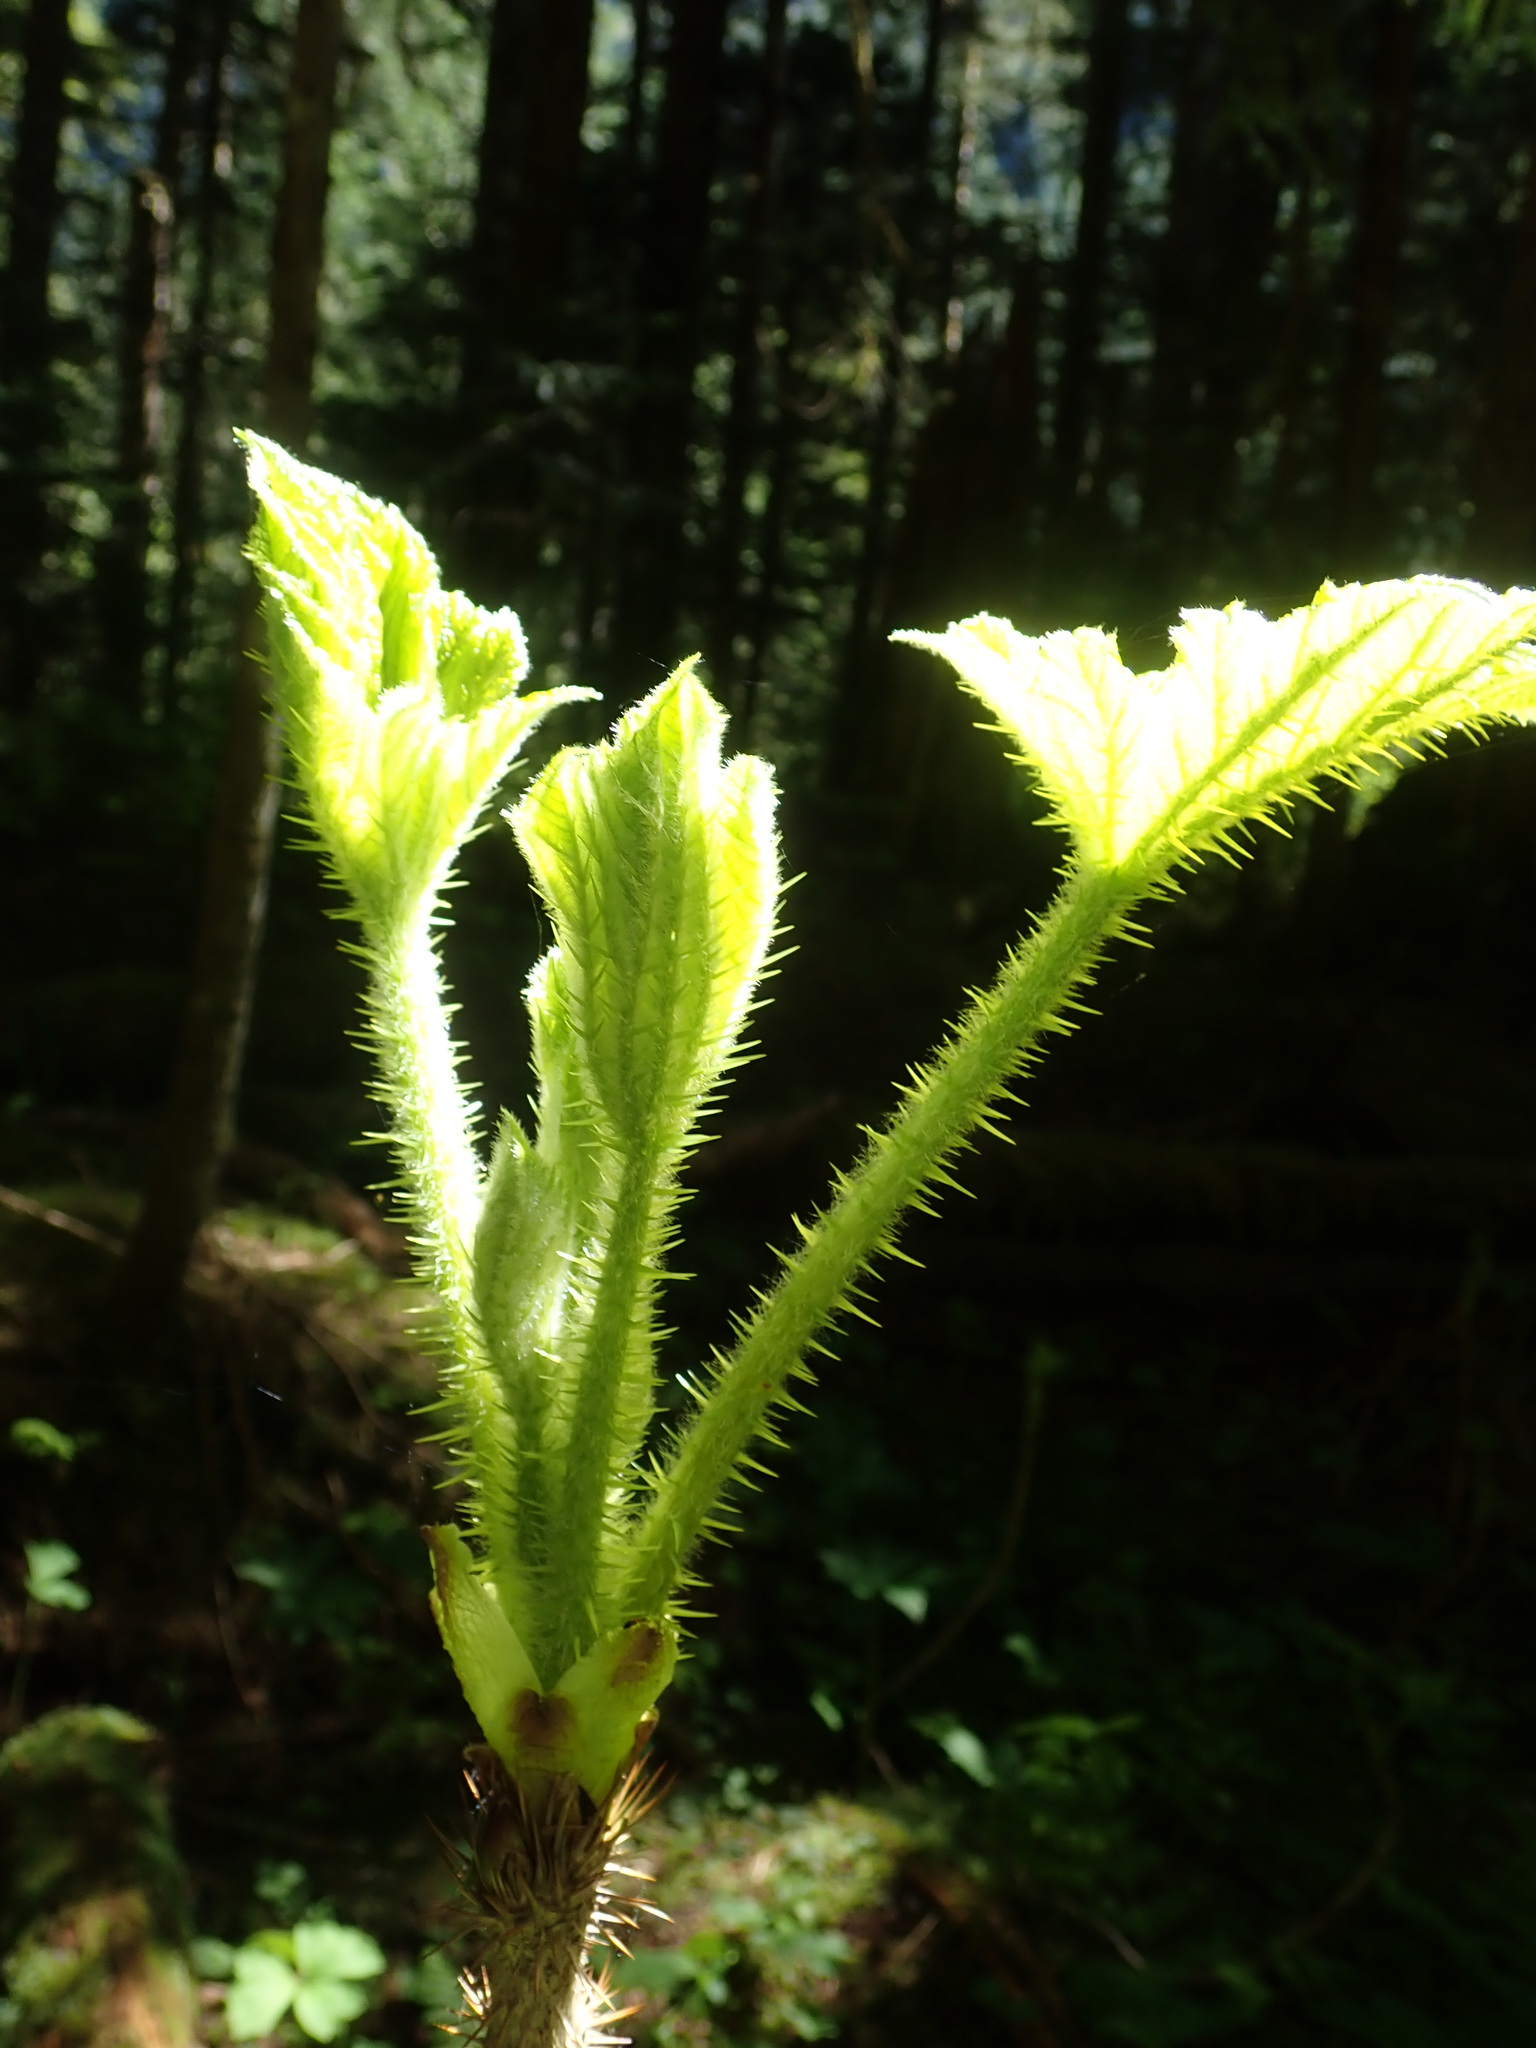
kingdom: Plantae
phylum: Tracheophyta
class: Magnoliopsida
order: Apiales
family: Araliaceae
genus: Oplopanax
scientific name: Oplopanax horridus
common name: Devil's walking-stick
